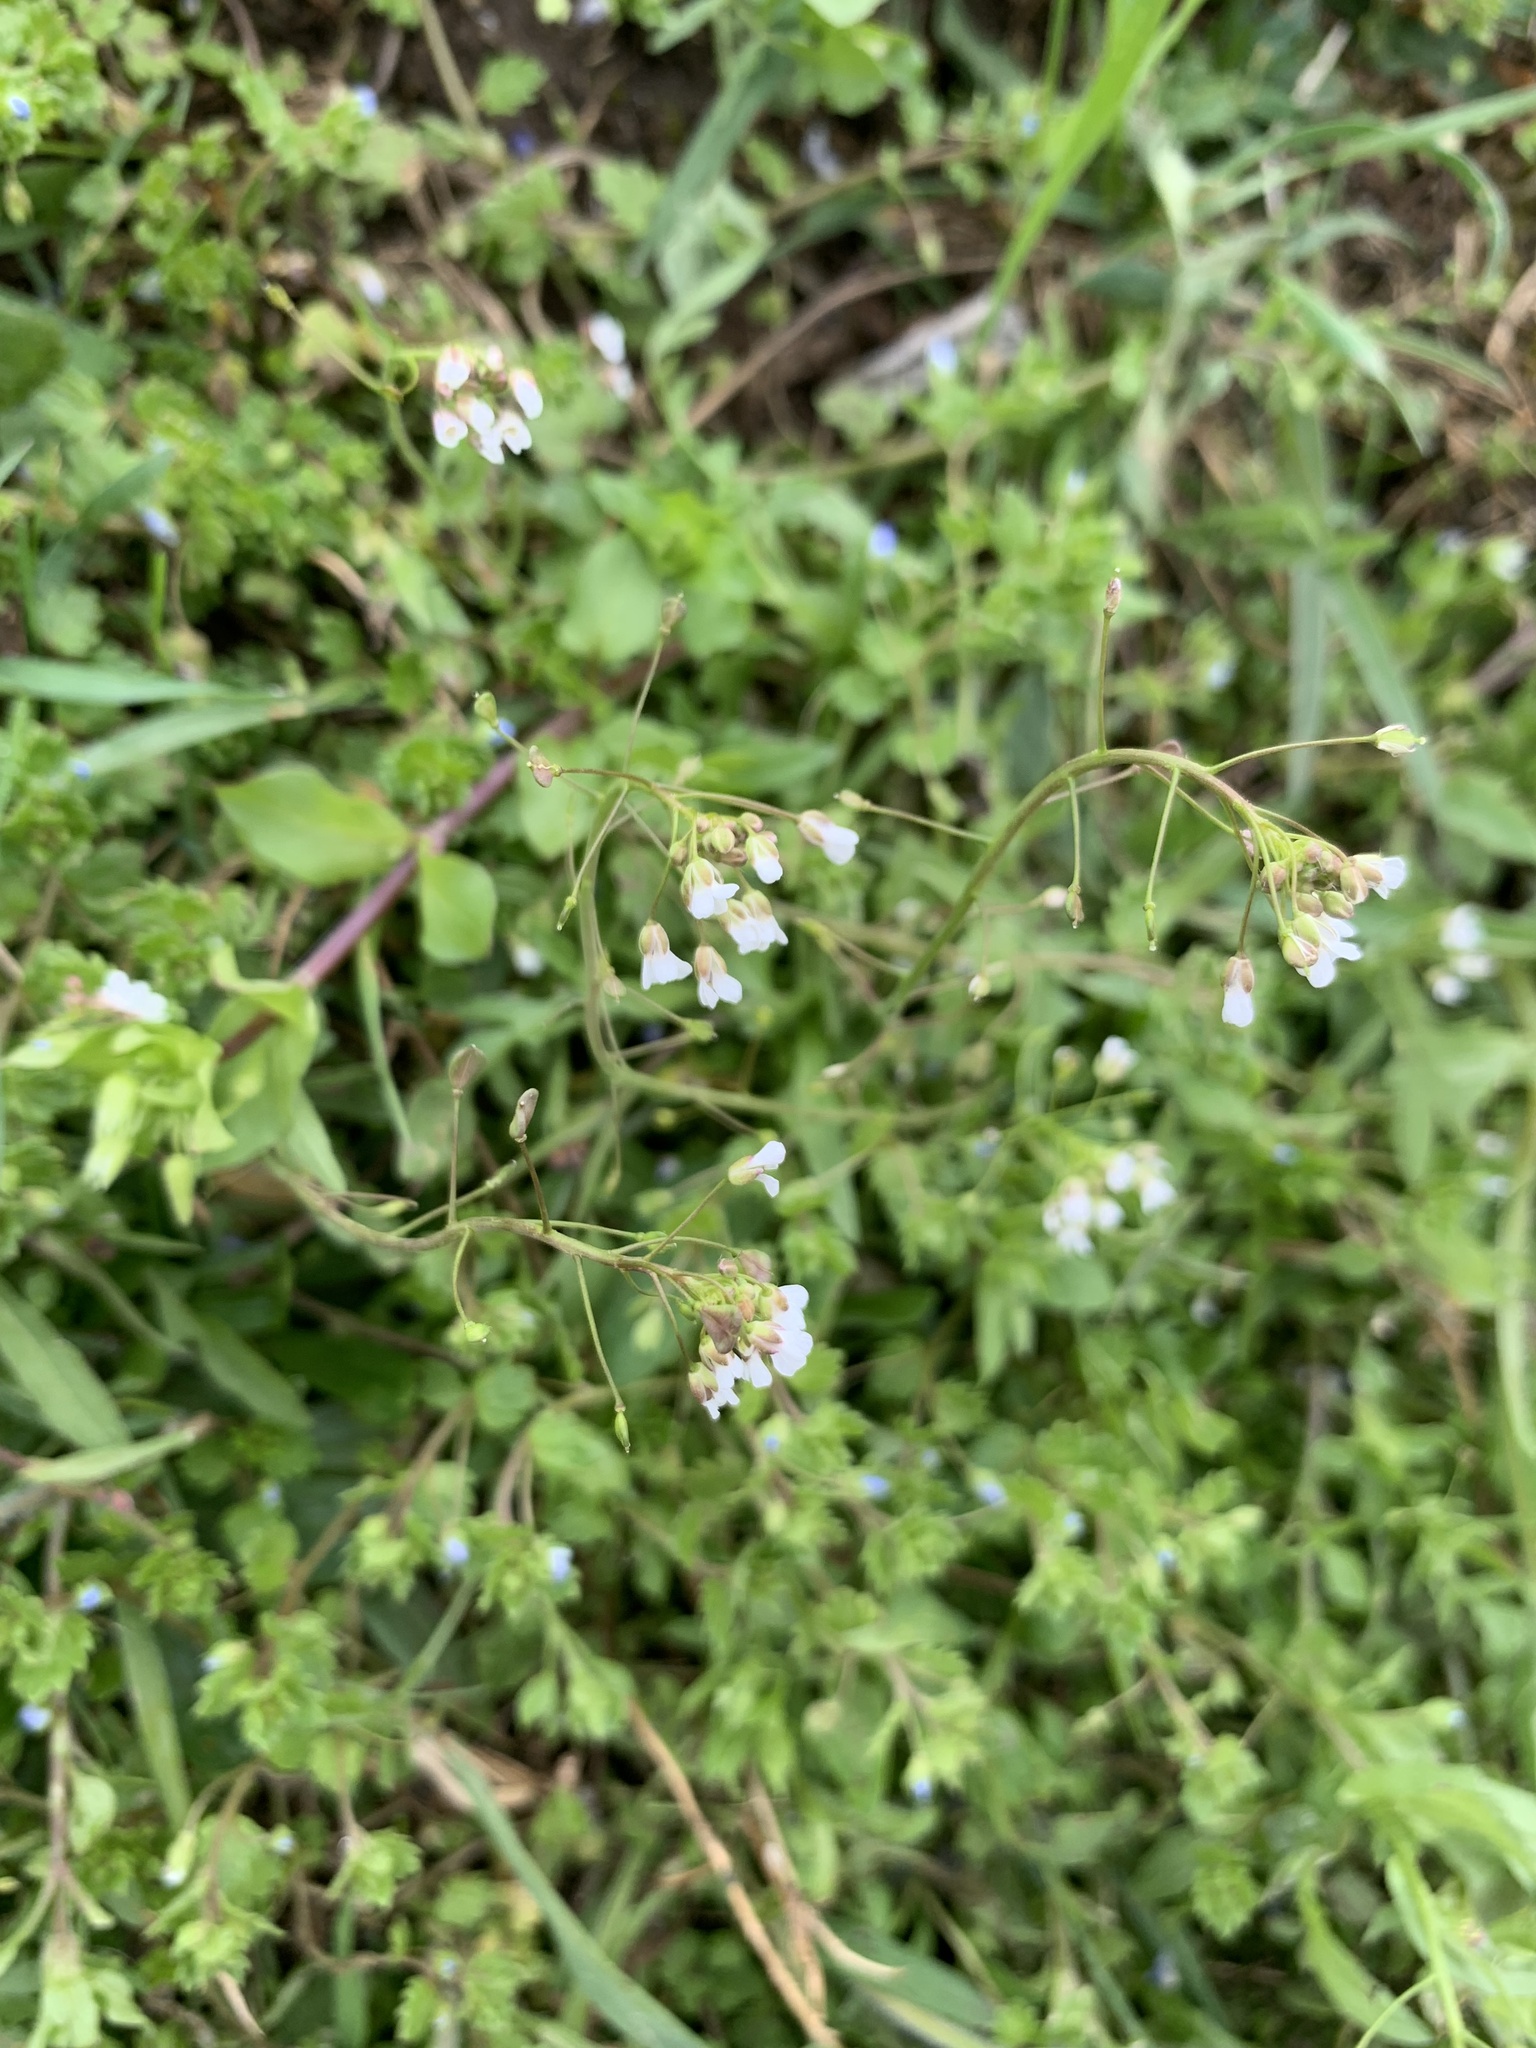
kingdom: Plantae
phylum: Tracheophyta
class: Magnoliopsida
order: Brassicales
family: Brassicaceae
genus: Capsella
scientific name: Capsella bursa-pastoris
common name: Shepherd's purse
